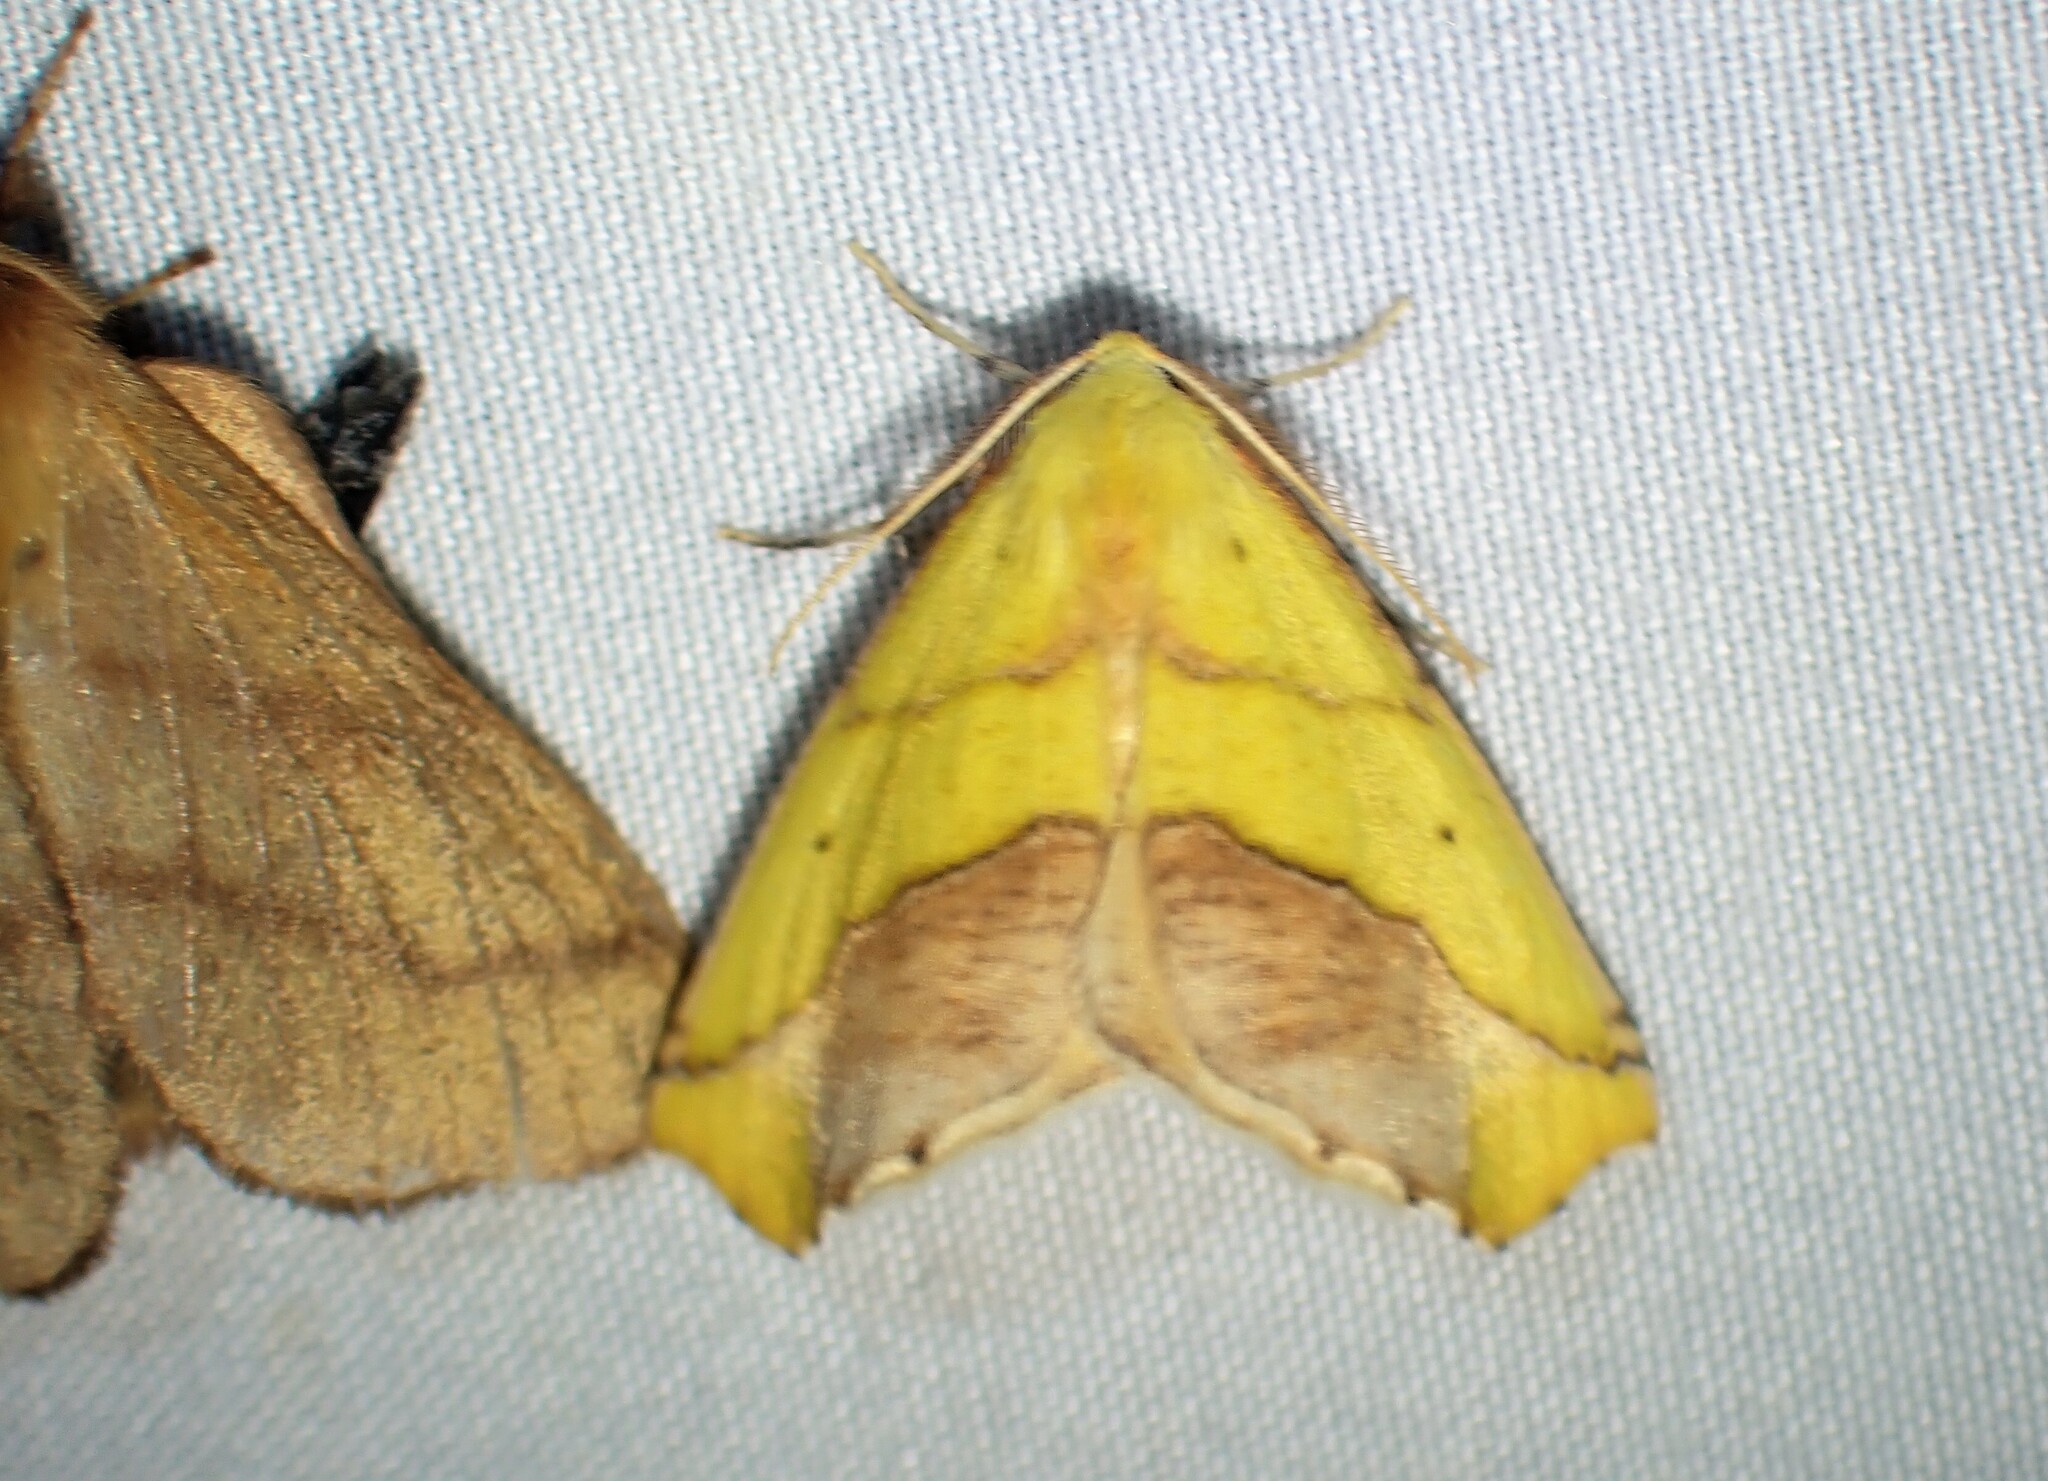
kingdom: Animalia
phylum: Arthropoda
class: Insecta
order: Lepidoptera
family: Geometridae
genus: Sicya
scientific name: Sicya macularia
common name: Sharp-lined yellow
